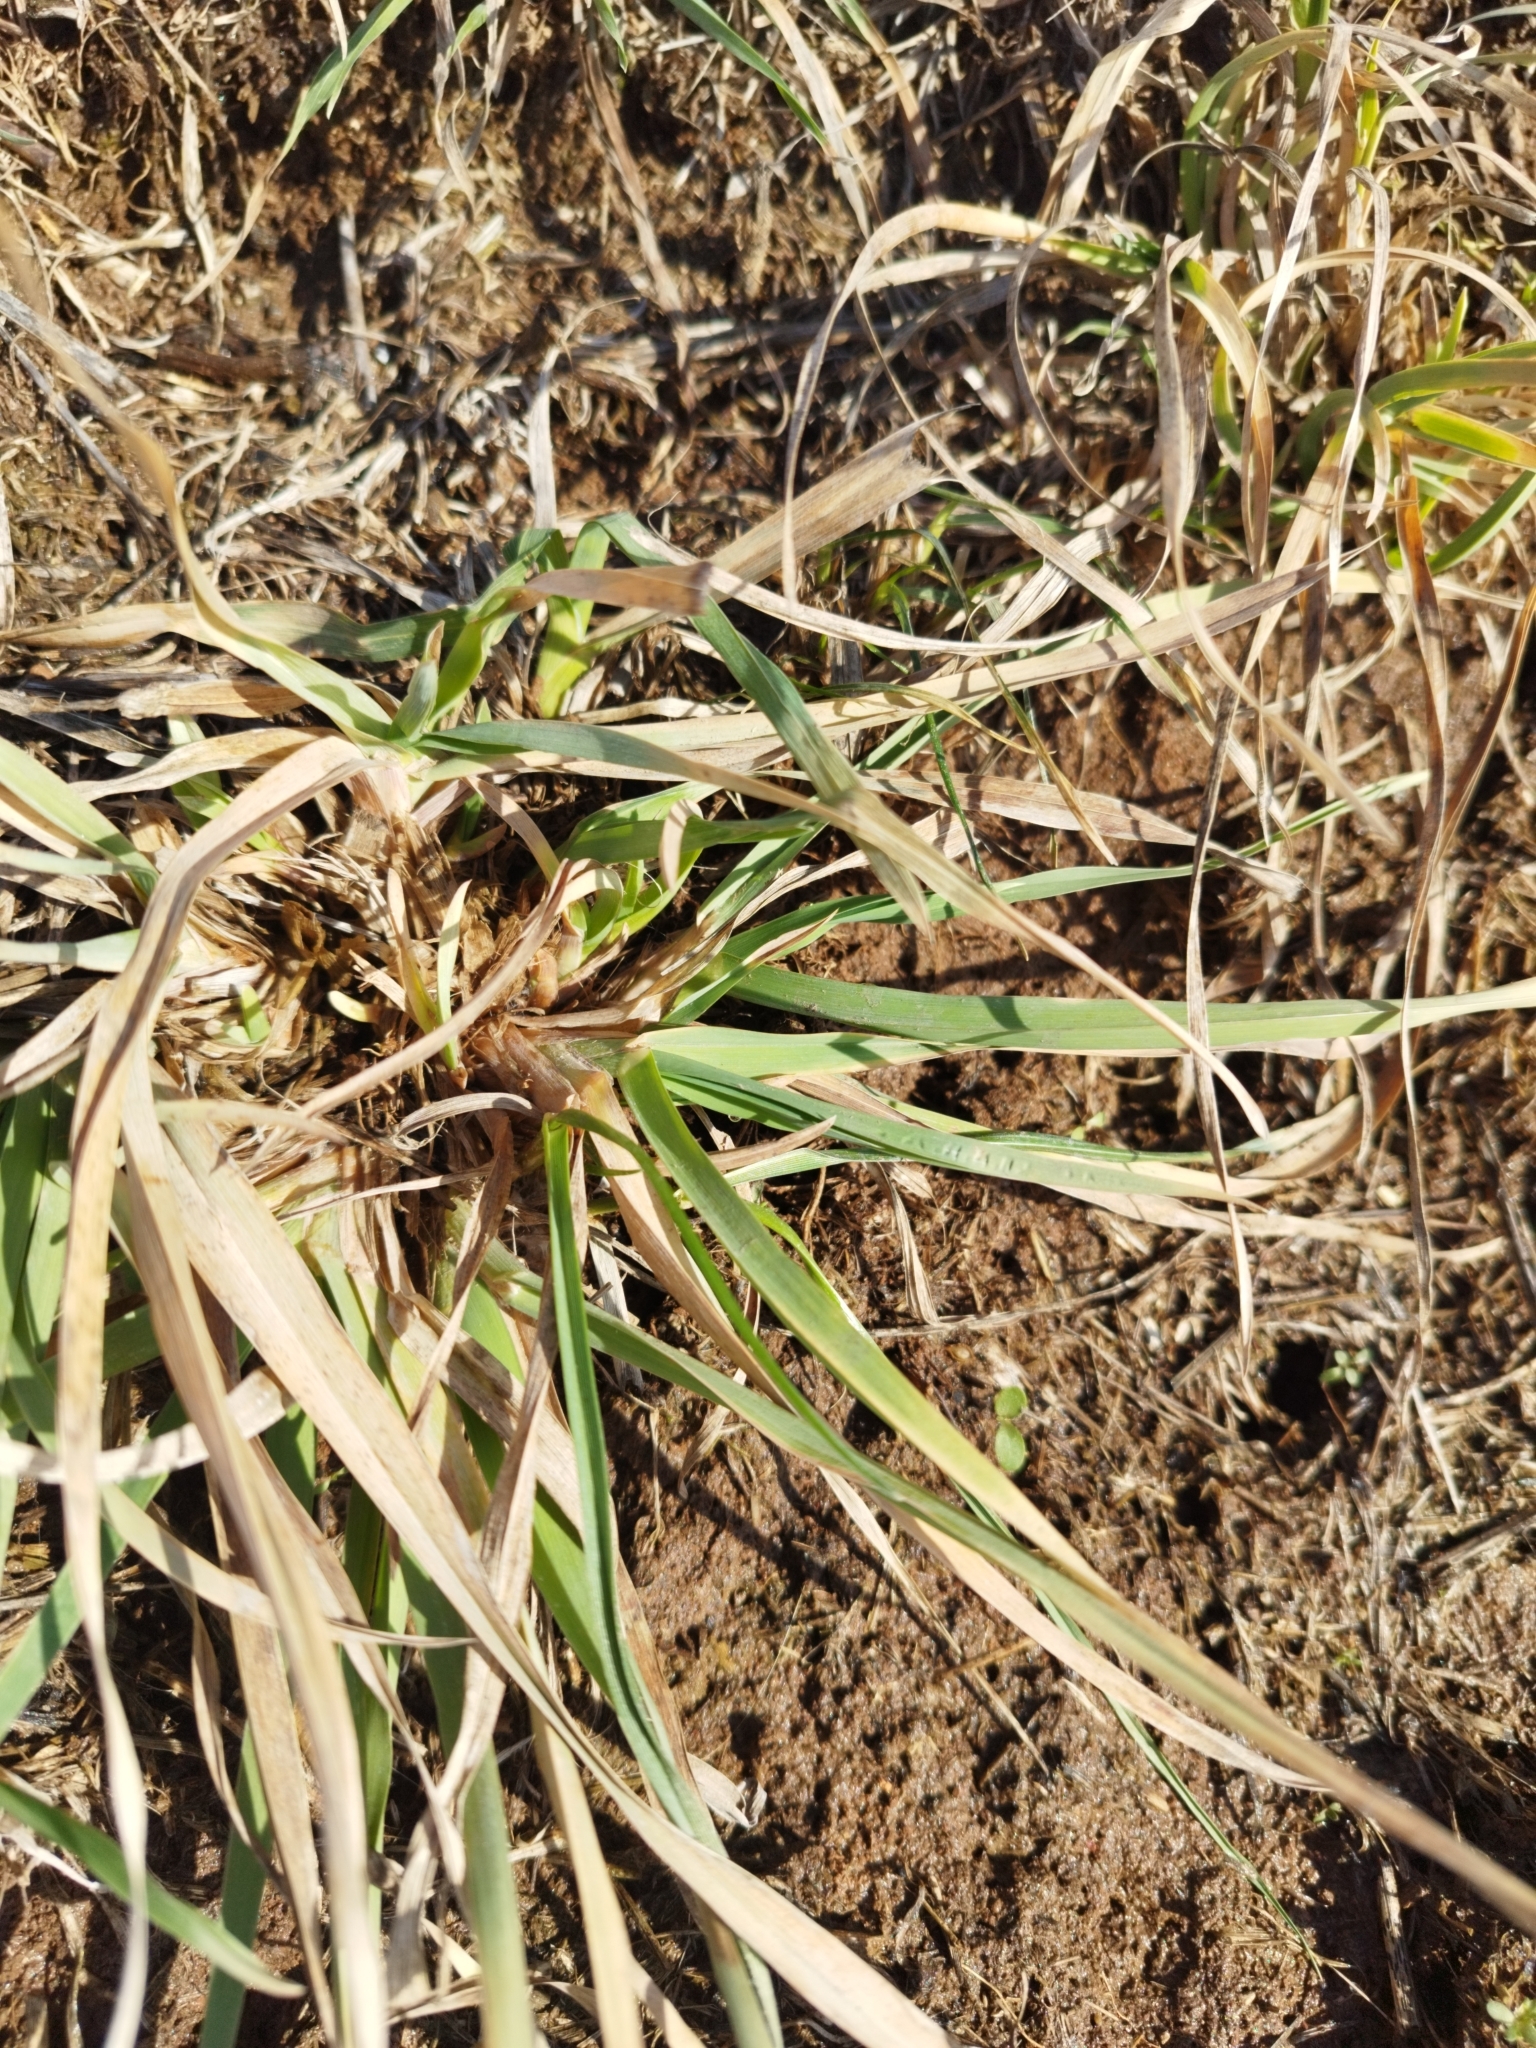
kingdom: Plantae
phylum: Tracheophyta
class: Liliopsida
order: Poales
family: Poaceae
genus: Dactylis
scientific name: Dactylis glomerata
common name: Orchardgrass
